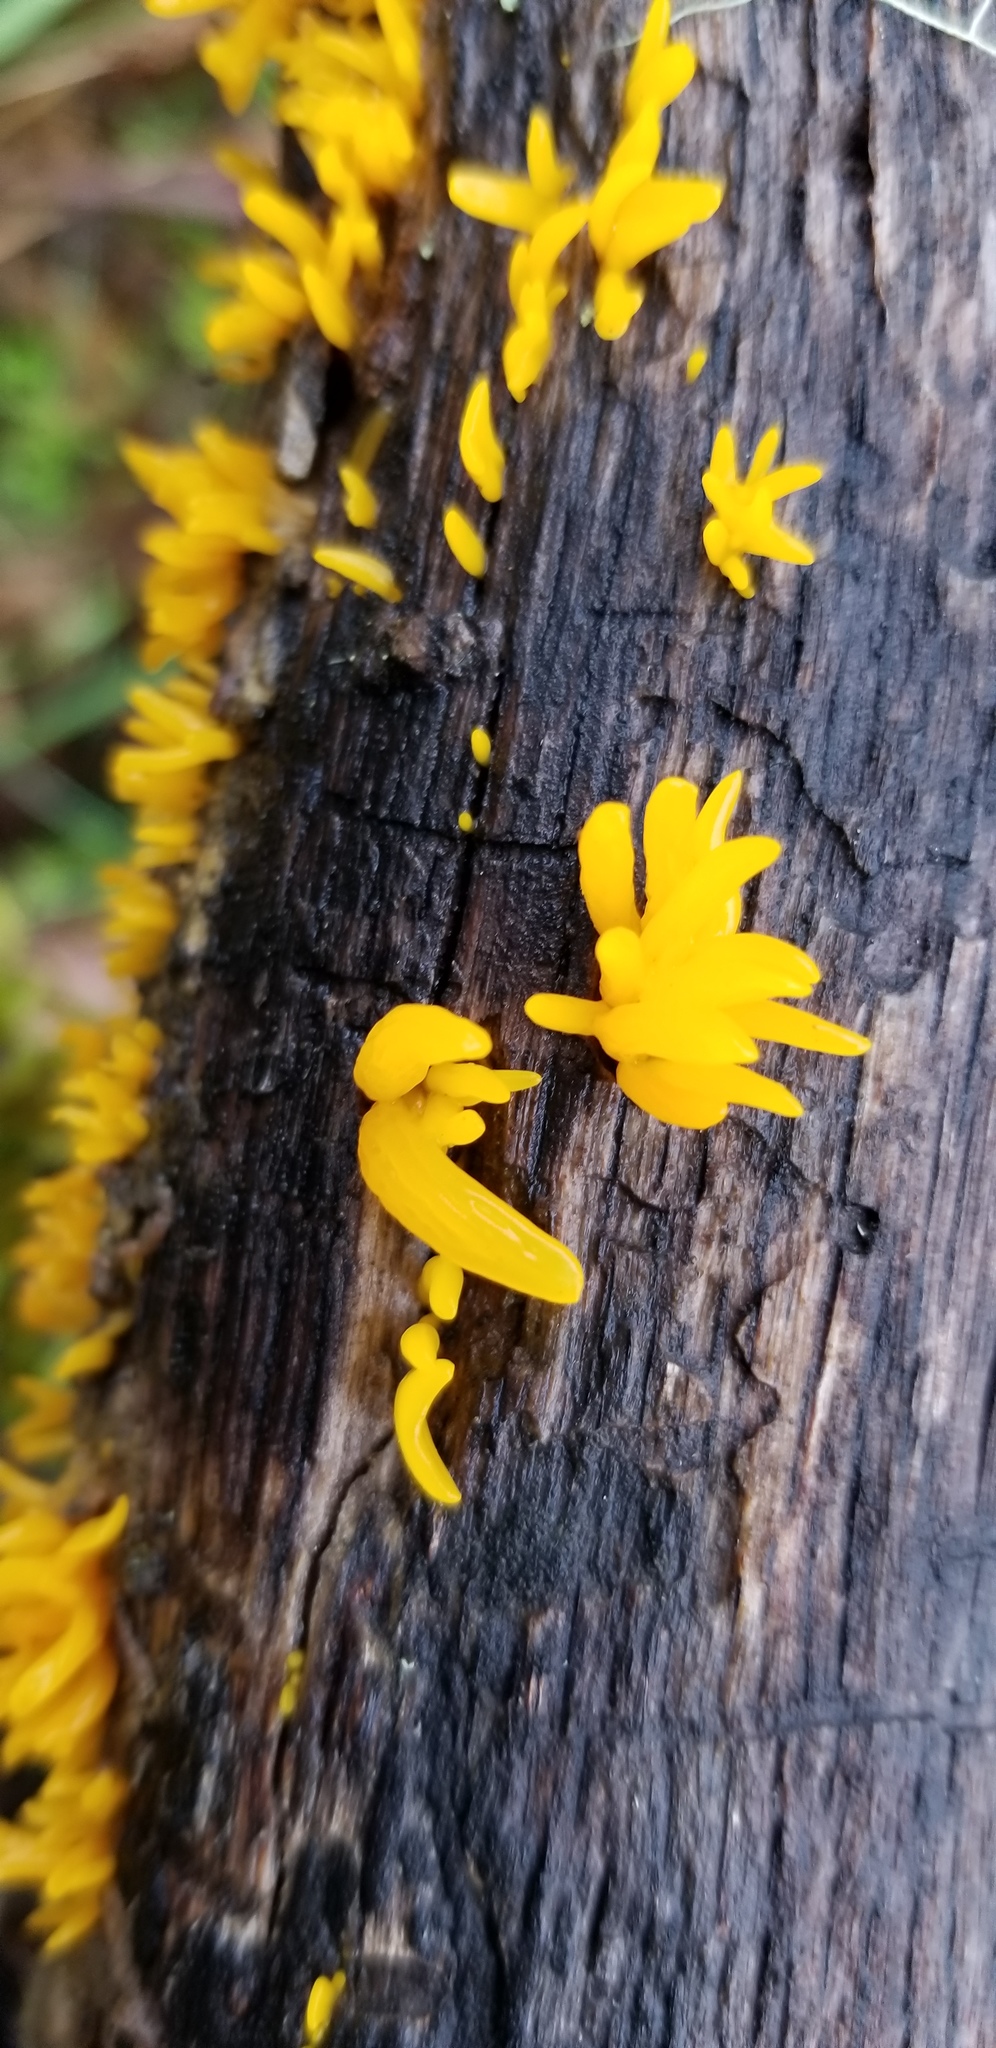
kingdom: Fungi
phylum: Basidiomycota
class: Dacrymycetes
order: Dacrymycetales
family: Dacrymycetaceae
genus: Calocera
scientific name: Calocera cornea
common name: Small stagshorn
